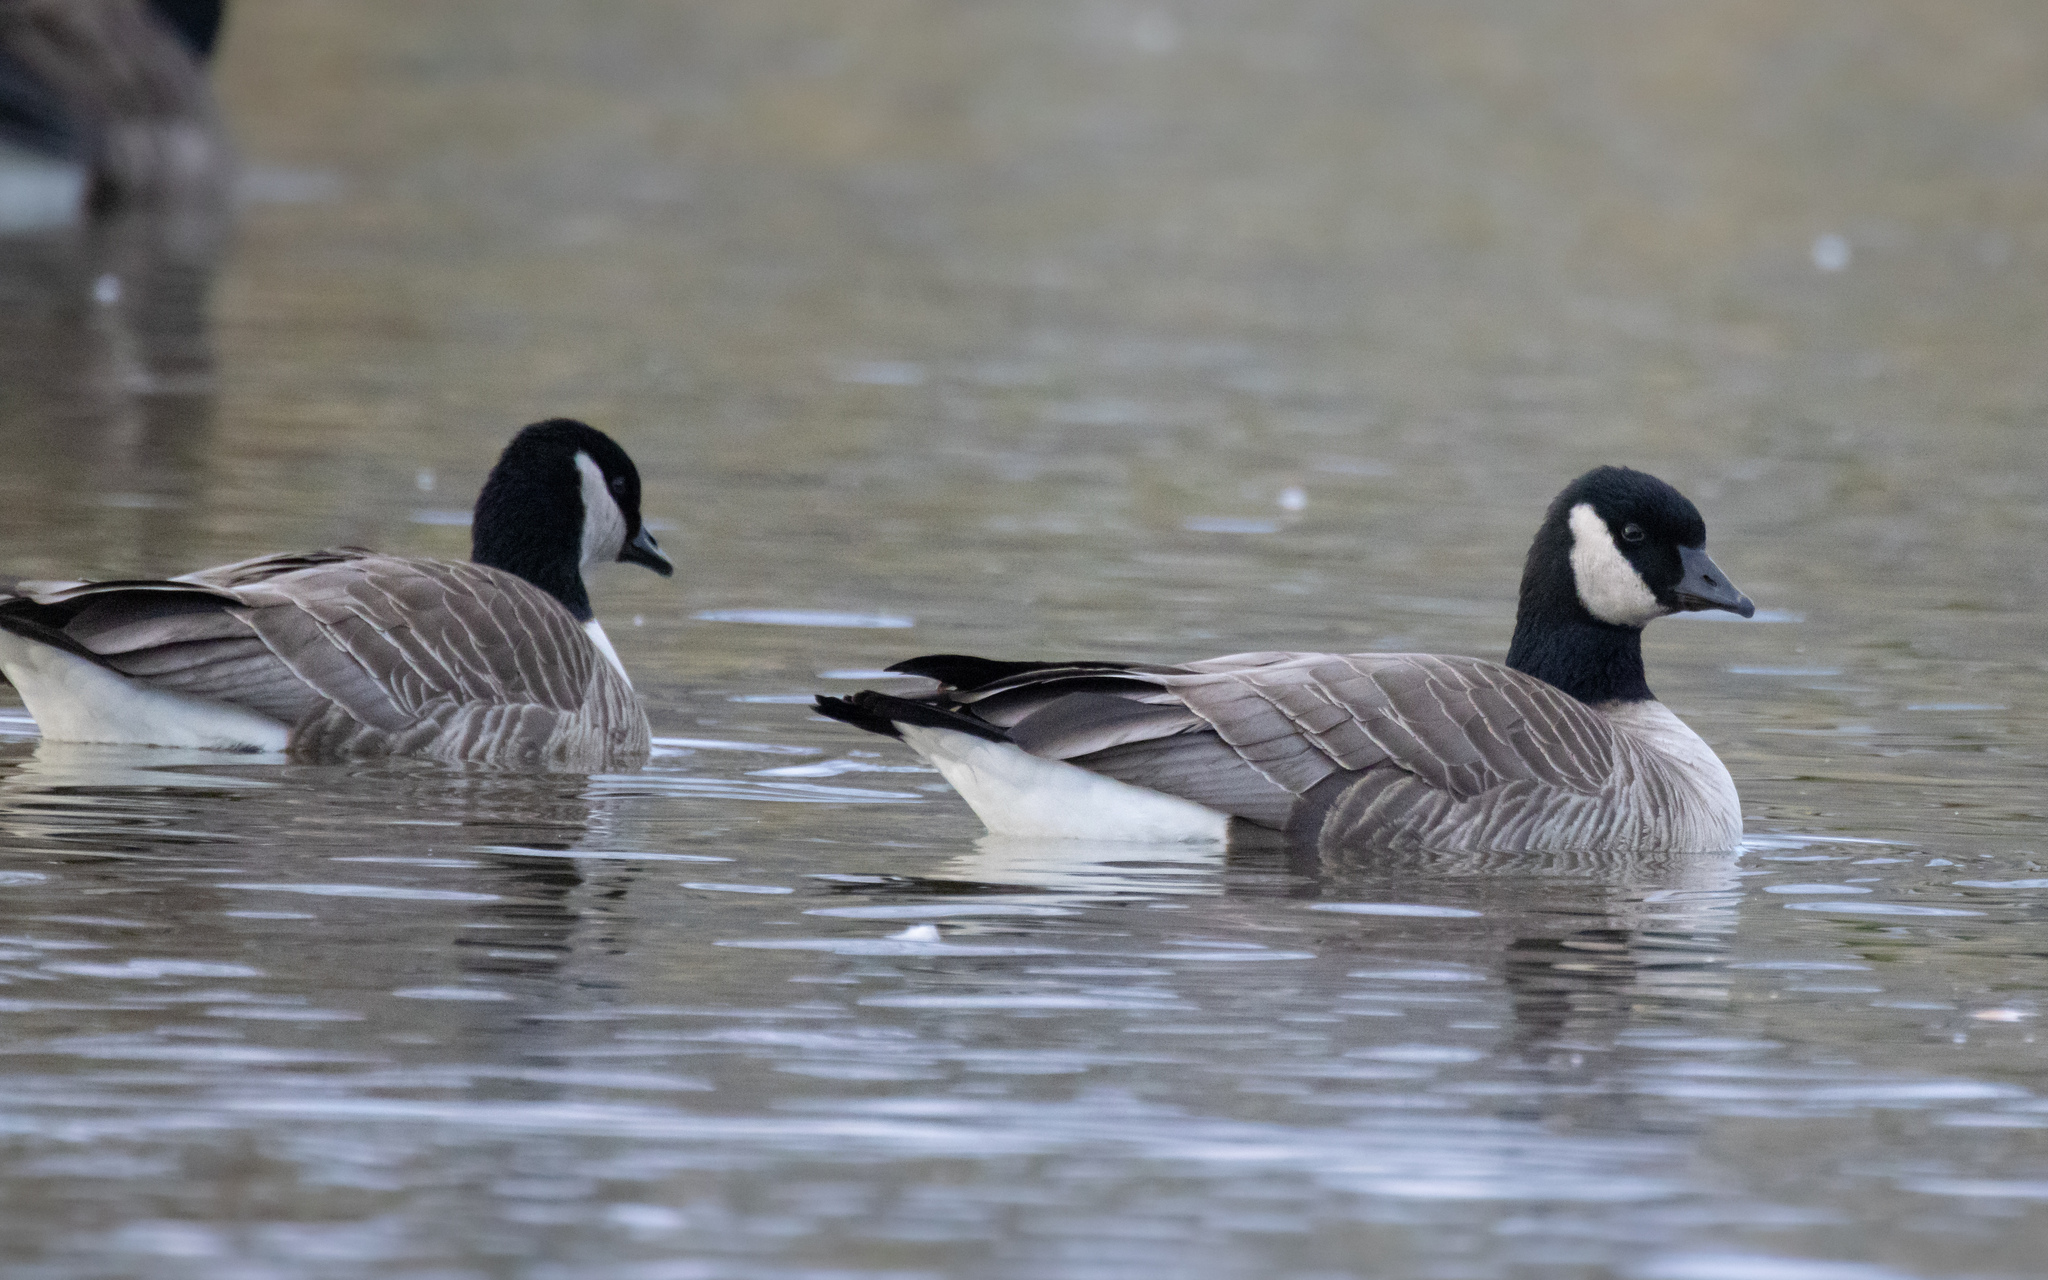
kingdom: Animalia
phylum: Chordata
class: Aves
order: Anseriformes
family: Anatidae
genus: Branta
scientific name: Branta hutchinsii
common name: Cackling goose
